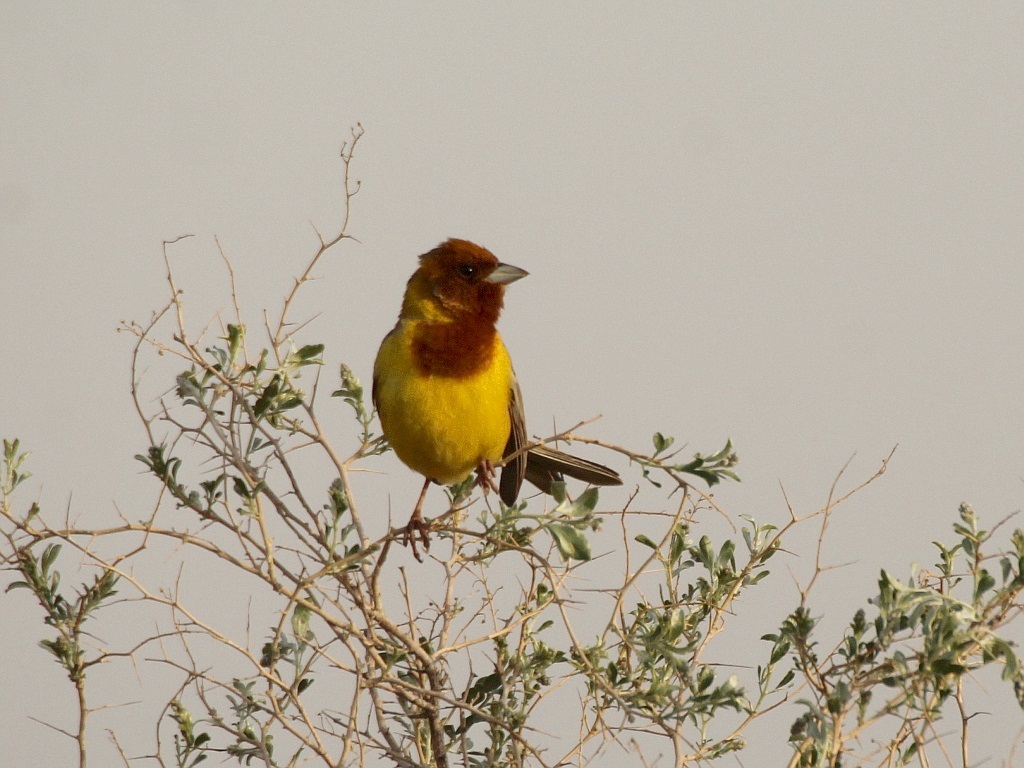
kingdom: Animalia
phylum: Chordata
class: Aves
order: Passeriformes
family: Emberizidae
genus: Emberiza
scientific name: Emberiza bruniceps
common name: Red-headed bunting
